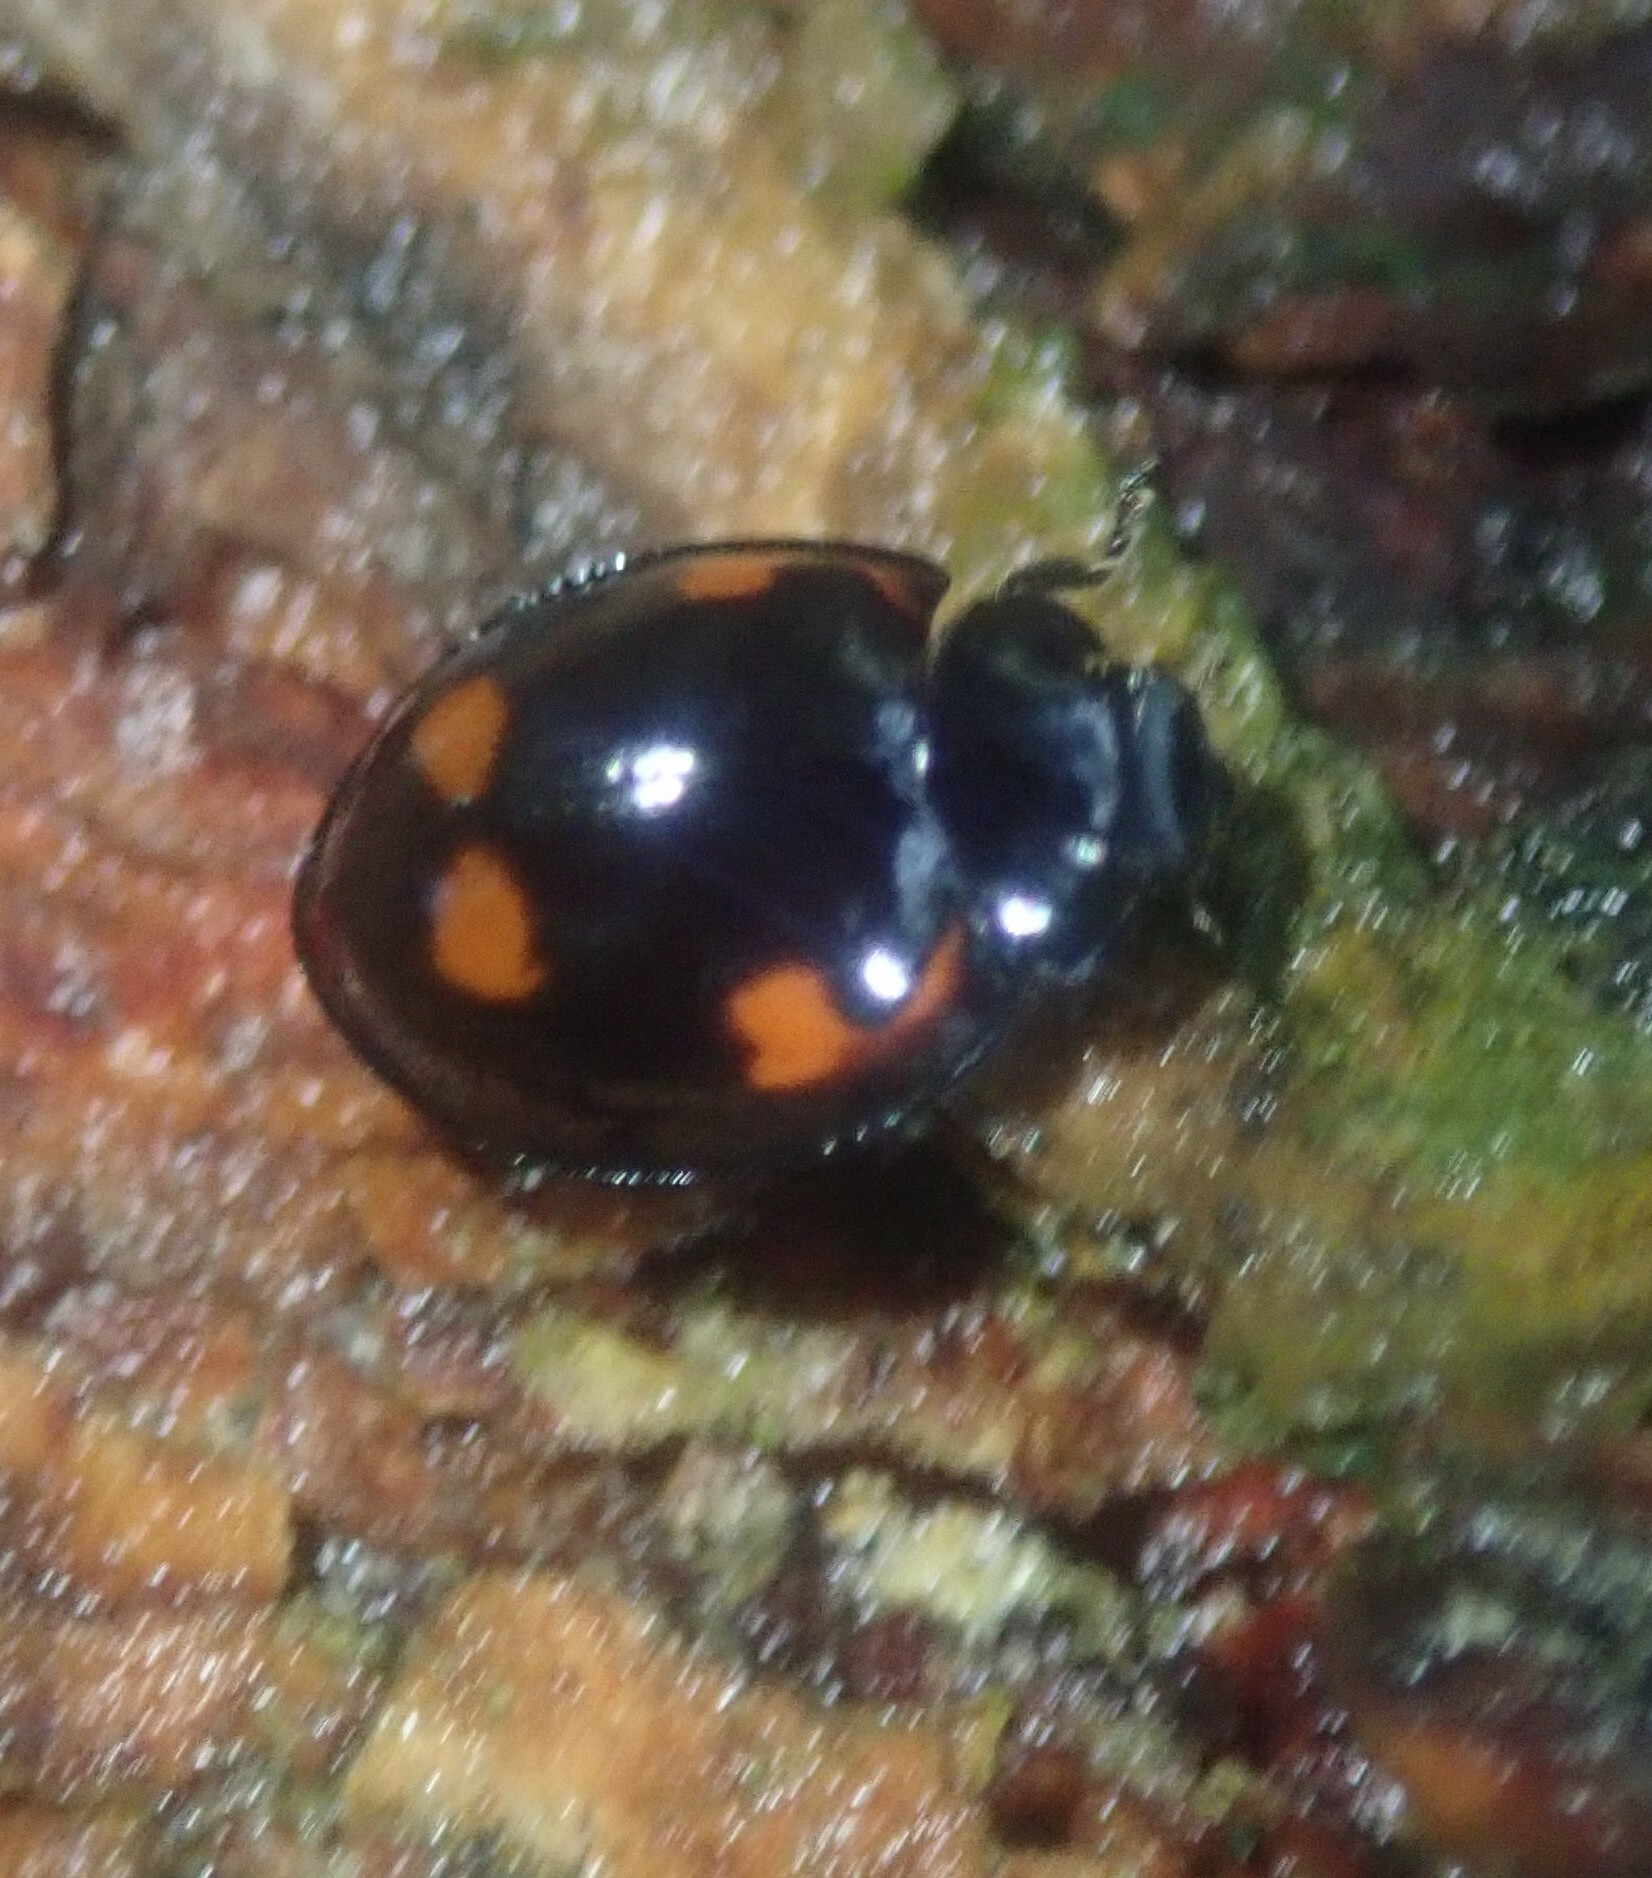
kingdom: Animalia
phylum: Arthropoda
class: Insecta
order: Coleoptera
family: Coccinellidae
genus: Brumus
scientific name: Brumus quadripustulatus
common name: Ladybird beetle
